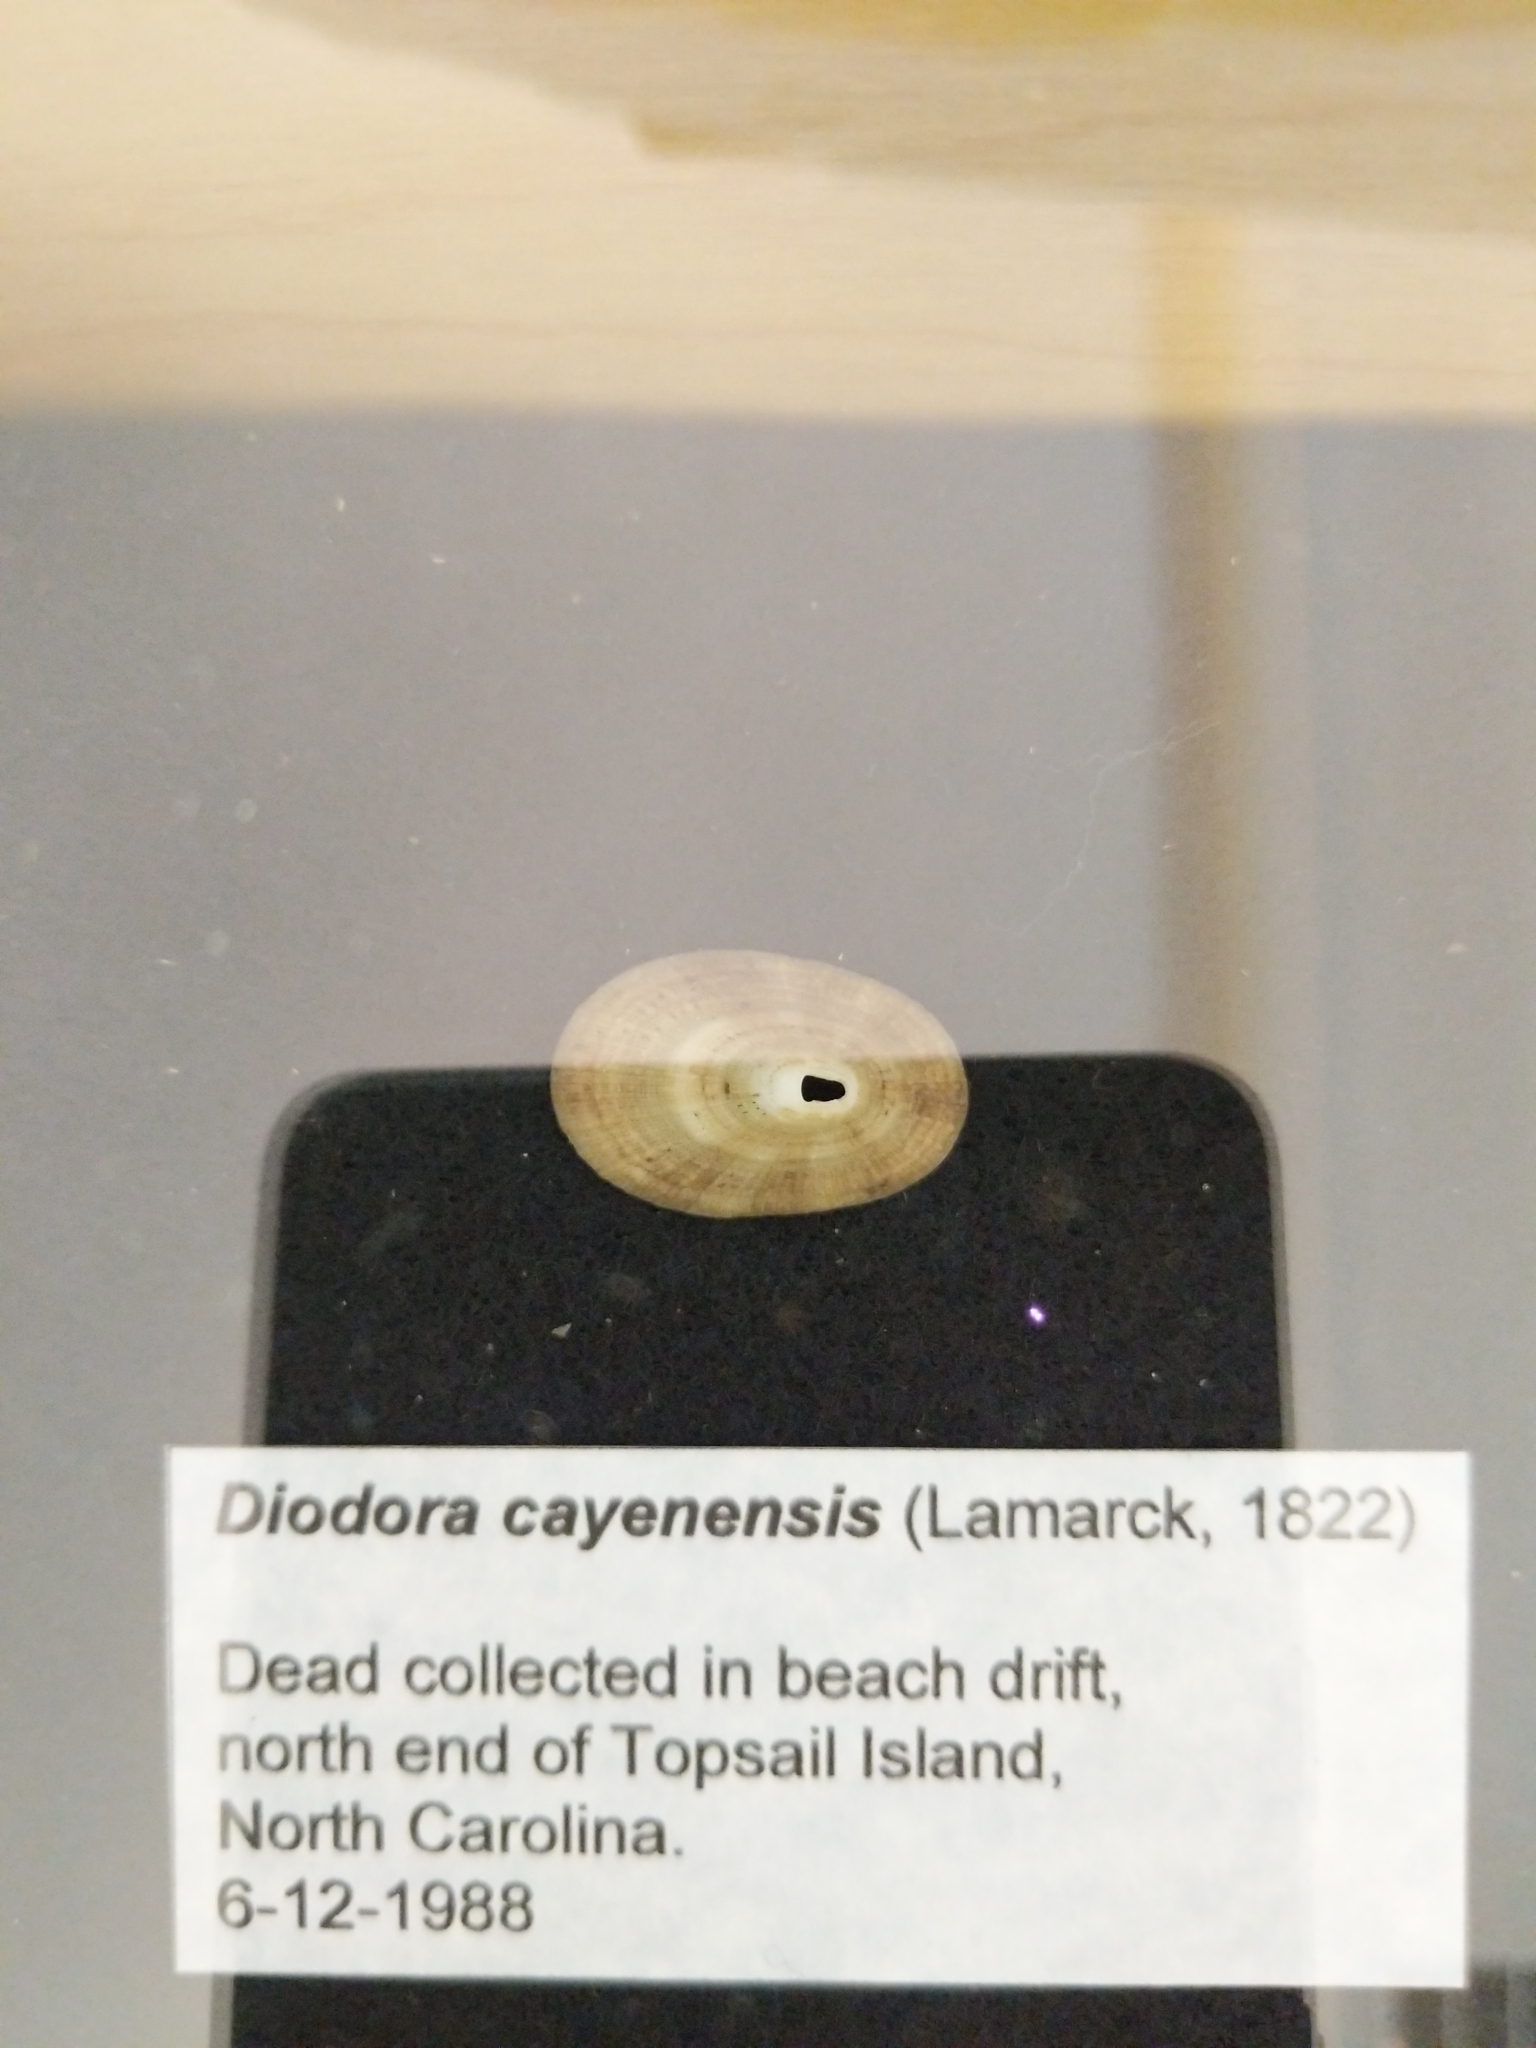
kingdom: Animalia
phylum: Mollusca
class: Gastropoda
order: Lepetellida
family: Fissurellidae
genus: Diodora
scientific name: Diodora cayenensis
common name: Cayenne keyhole limpet
